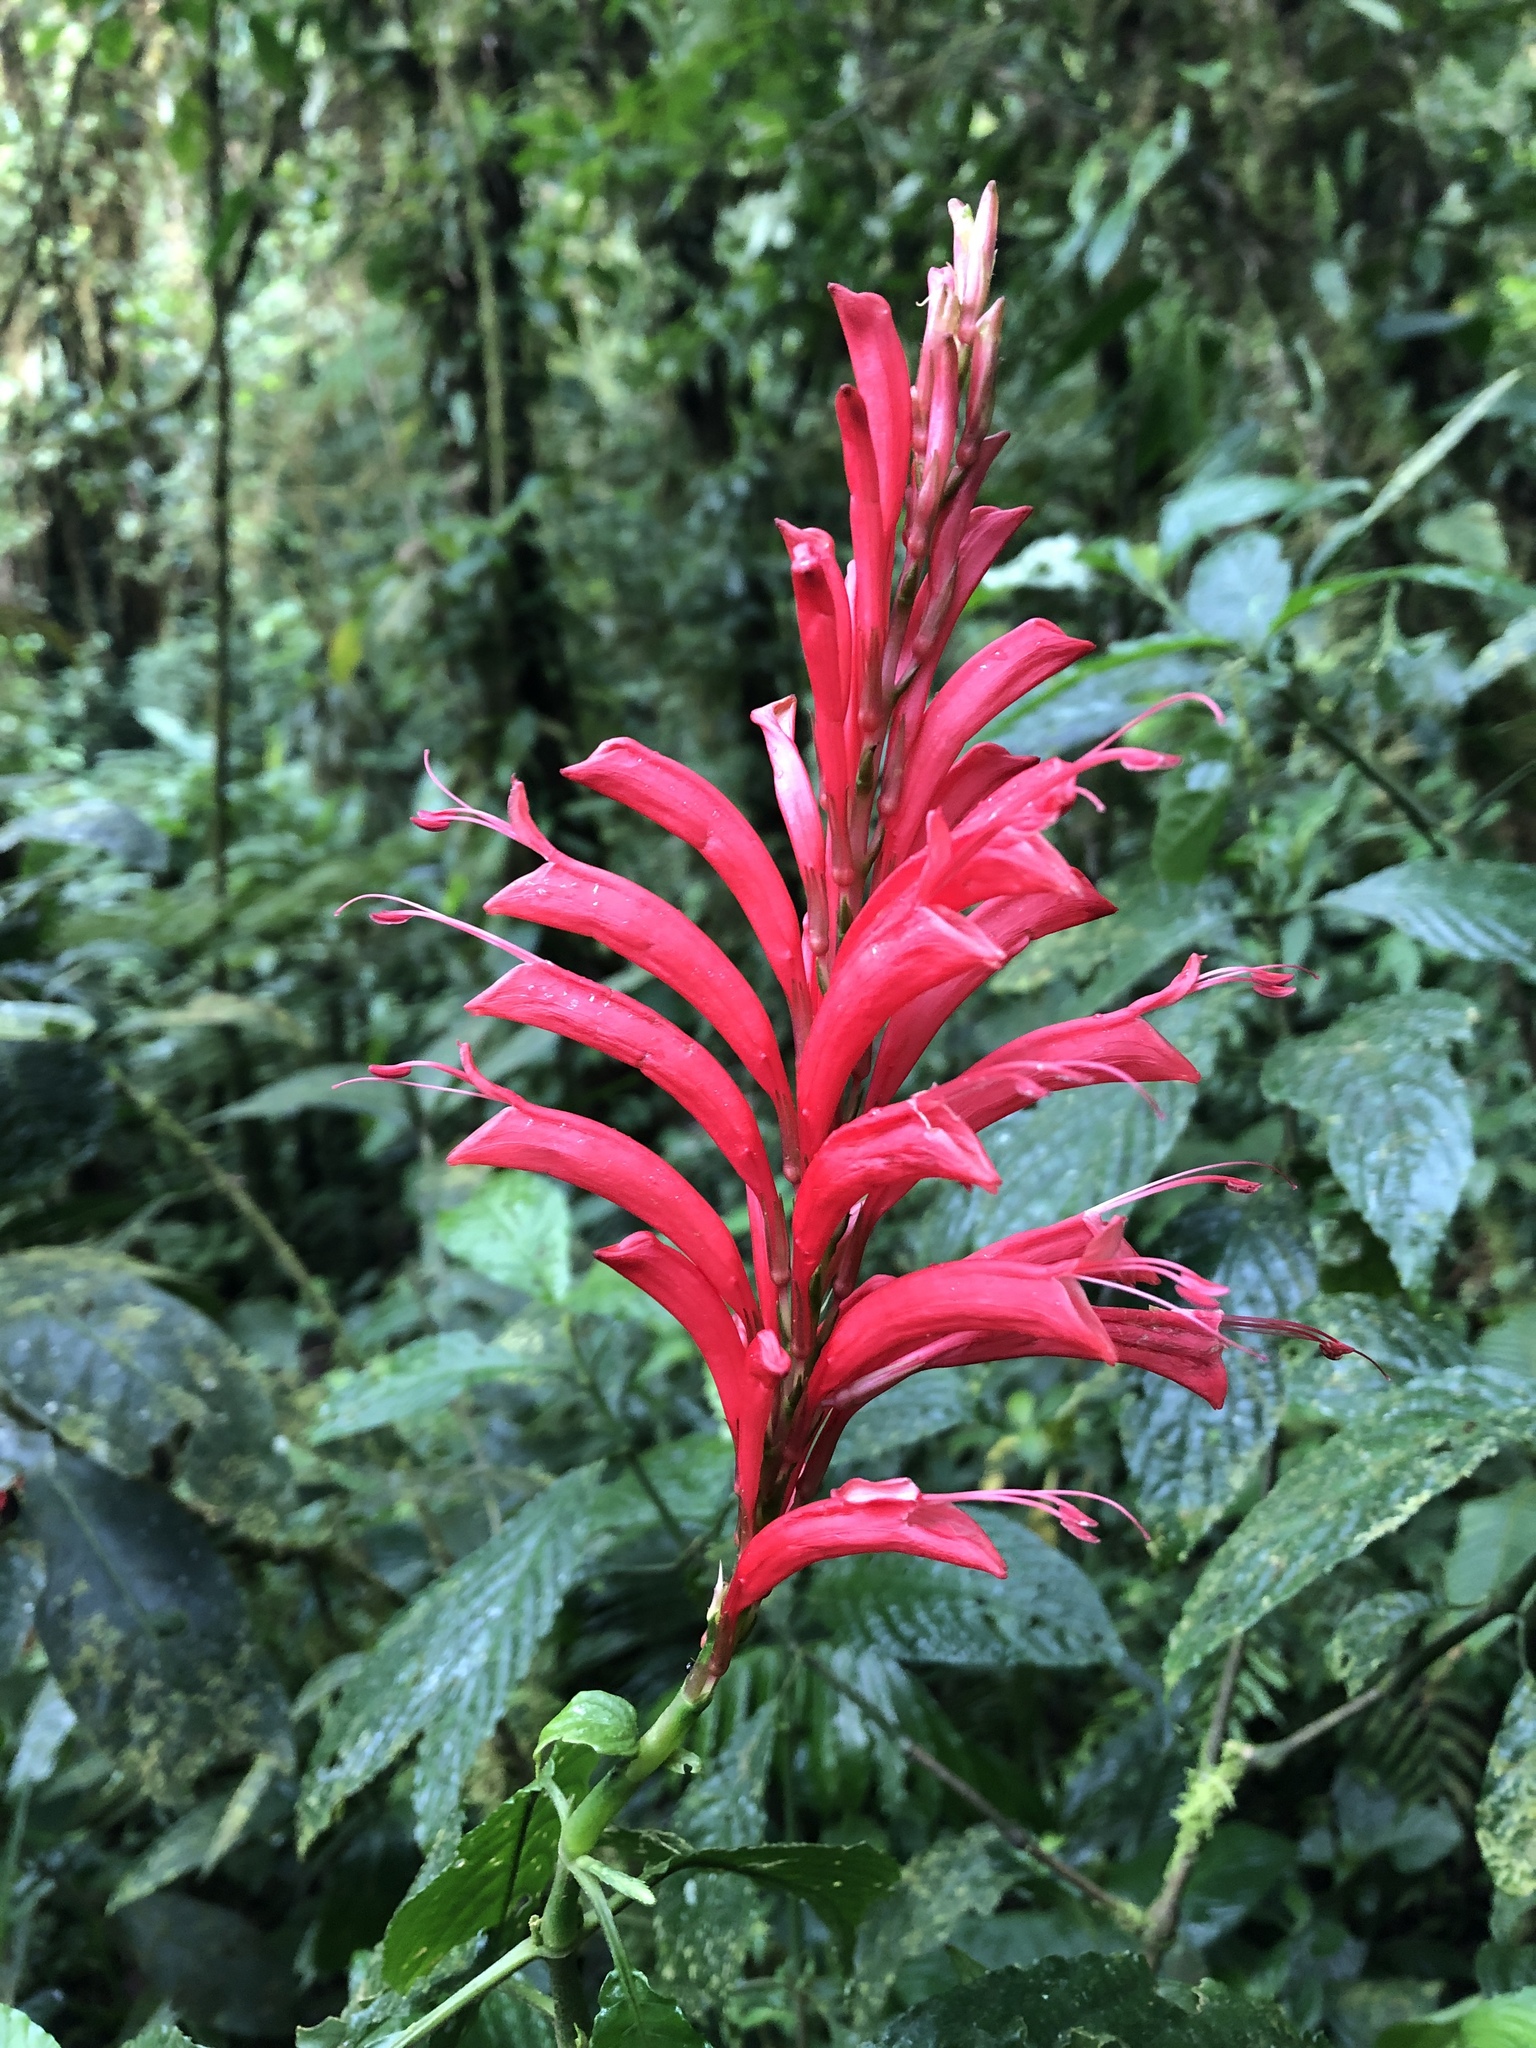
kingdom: Plantae
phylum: Tracheophyta
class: Magnoliopsida
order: Lamiales
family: Acanthaceae
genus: Stenostephanus
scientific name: Stenostephanus leiorhachis
